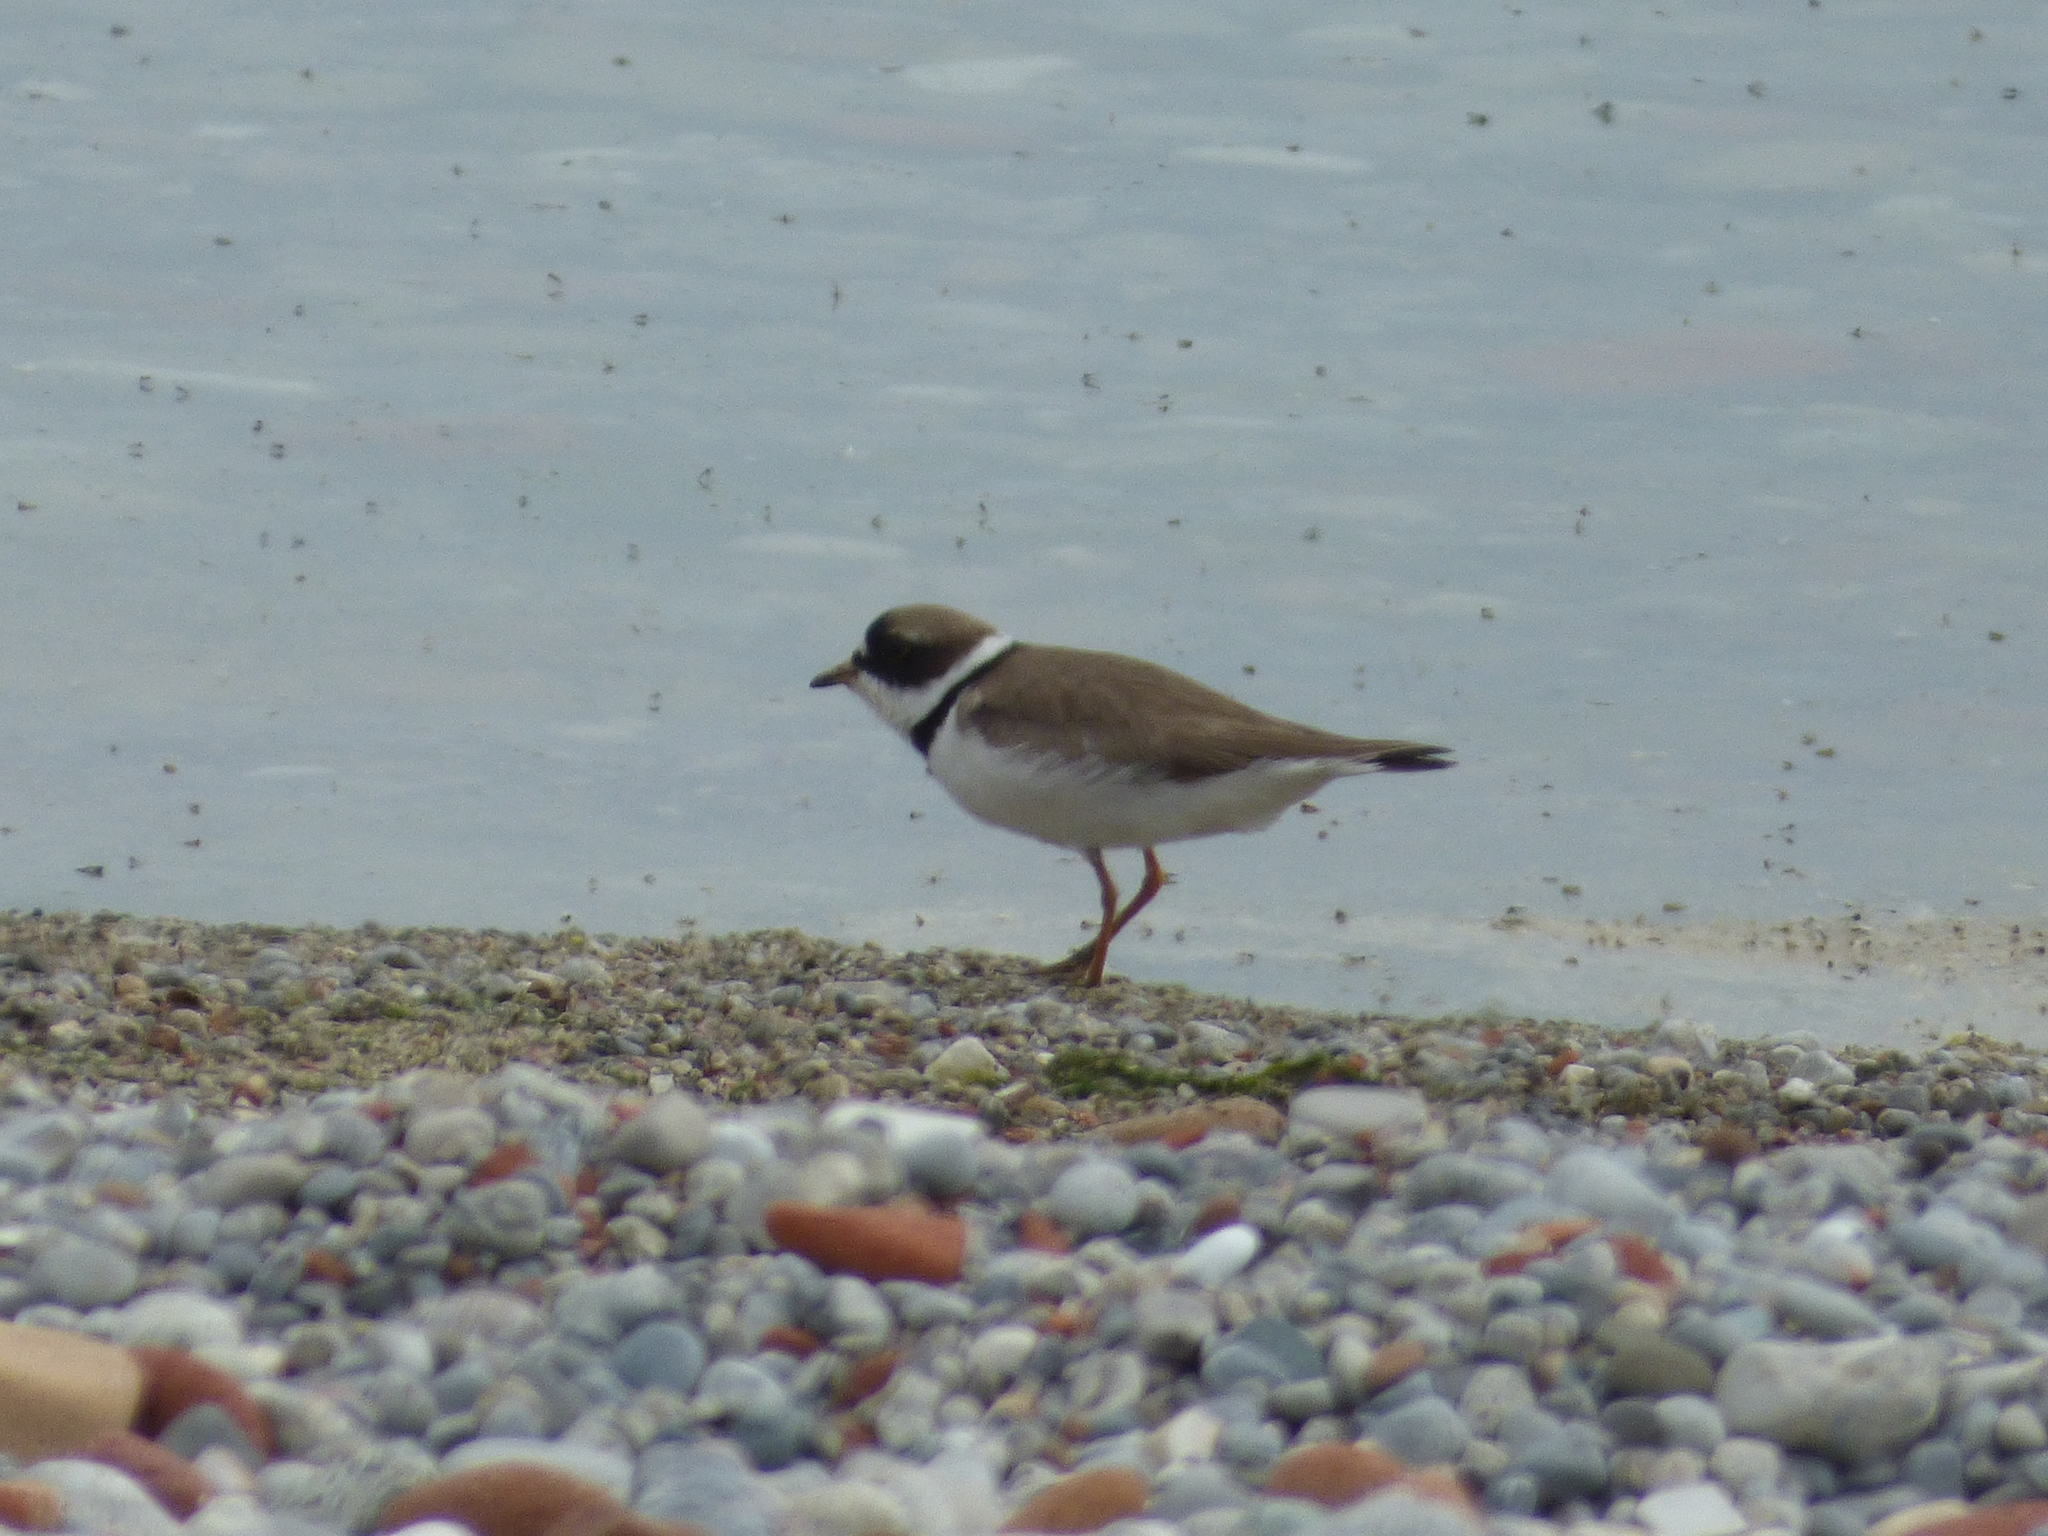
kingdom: Animalia
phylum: Chordata
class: Aves
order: Charadriiformes
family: Charadriidae
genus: Charadrius
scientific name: Charadrius semipalmatus
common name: Semipalmated plover
